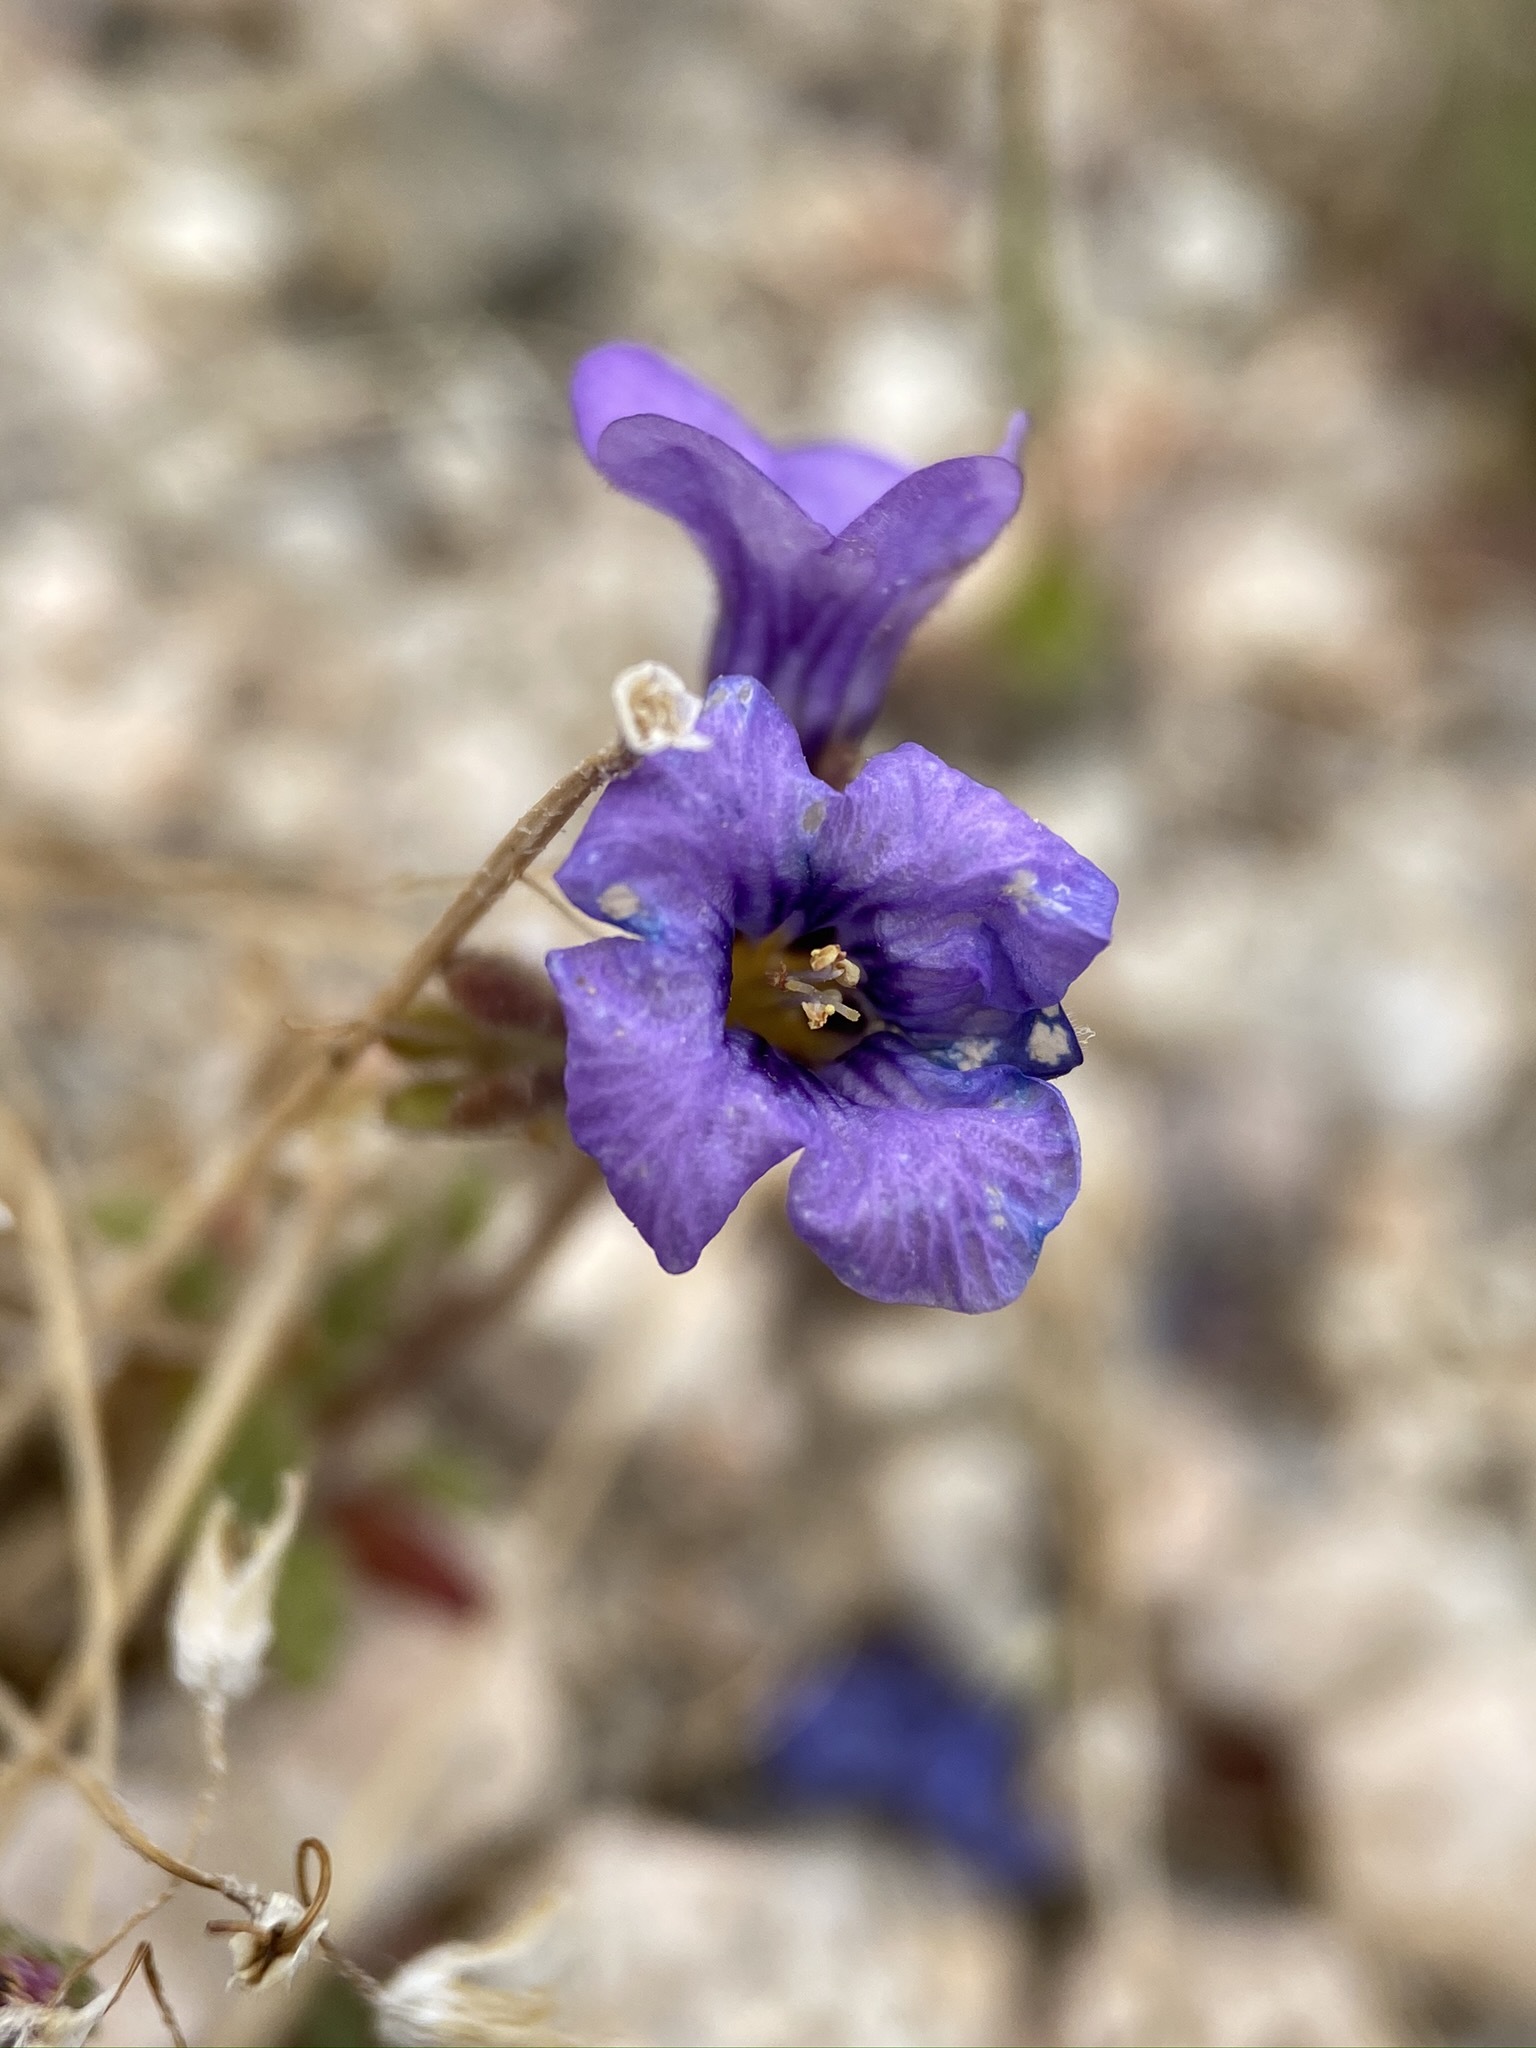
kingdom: Plantae
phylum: Tracheophyta
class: Magnoliopsida
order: Boraginales
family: Hydrophyllaceae
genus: Phacelia
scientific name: Phacelia fremontii
